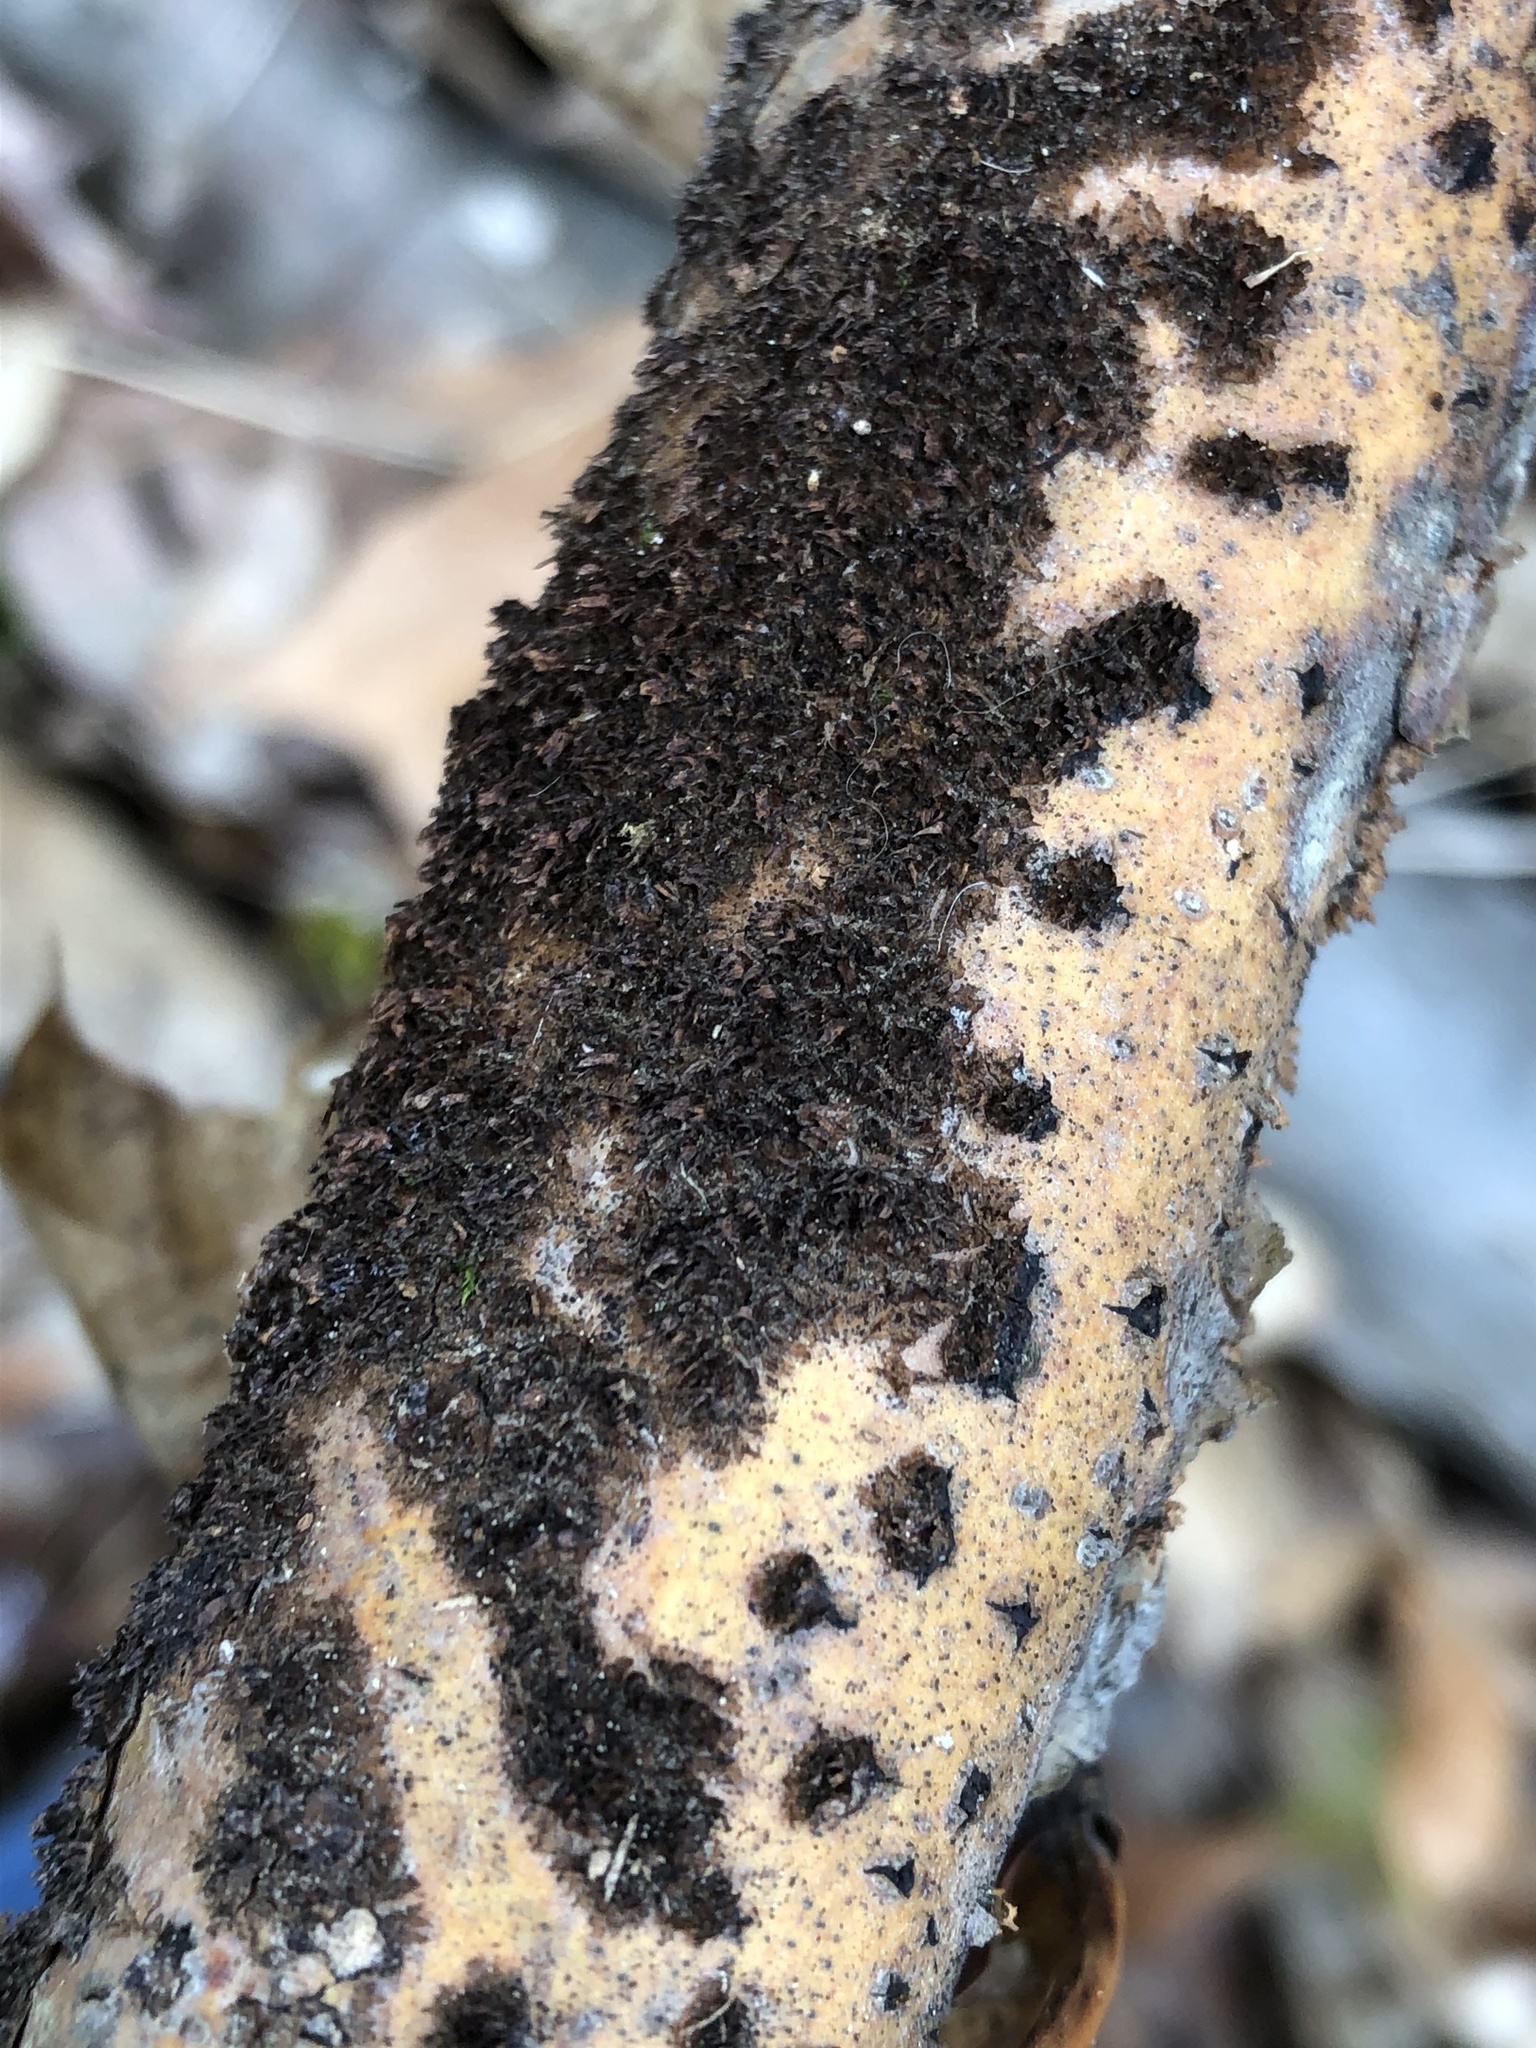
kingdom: Fungi
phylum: Basidiomycota
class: Agaricomycetes
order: Hymenochaetales
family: Hymenochaetaceae
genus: Hydnoporia
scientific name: Hydnoporia olivacea
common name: Brown-toothed crust fungus
